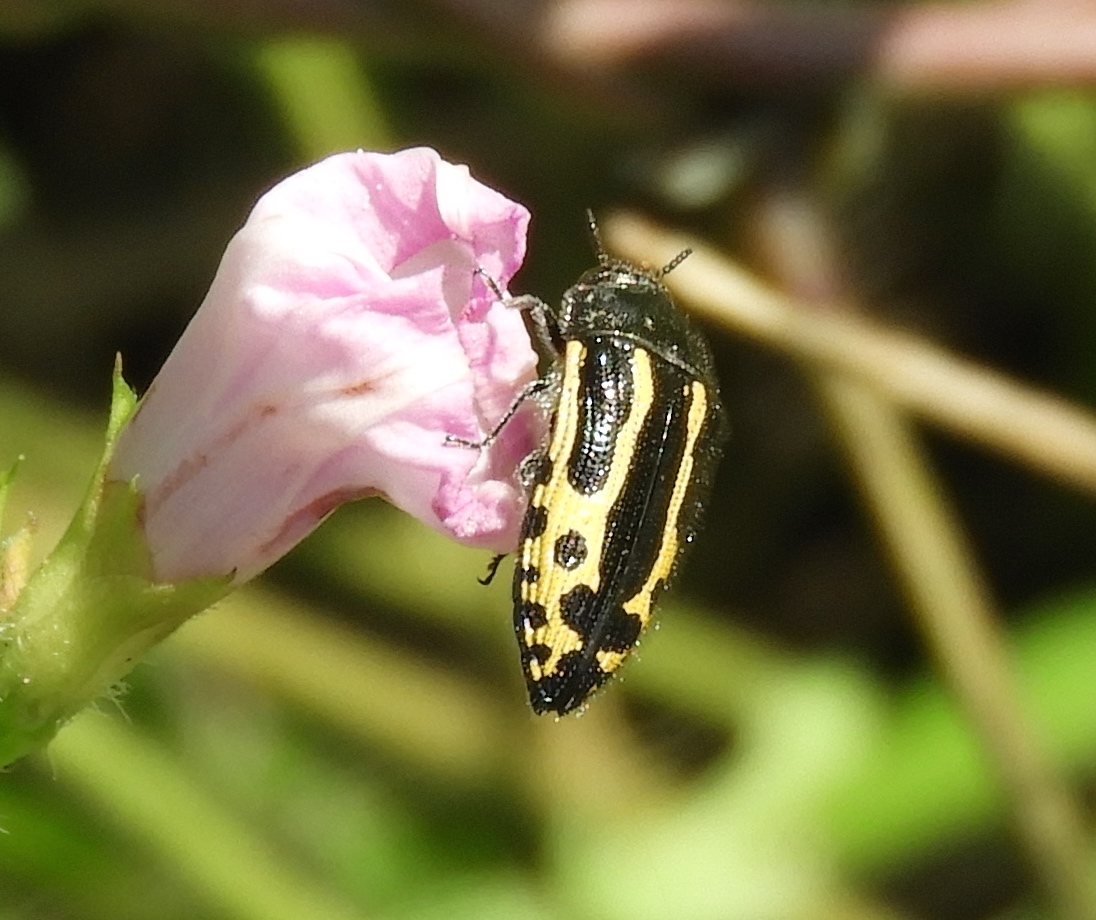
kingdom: Animalia
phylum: Arthropoda
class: Insecta
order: Coleoptera
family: Buprestidae
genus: Acmaeodera
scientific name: Acmaeodera scalaris
